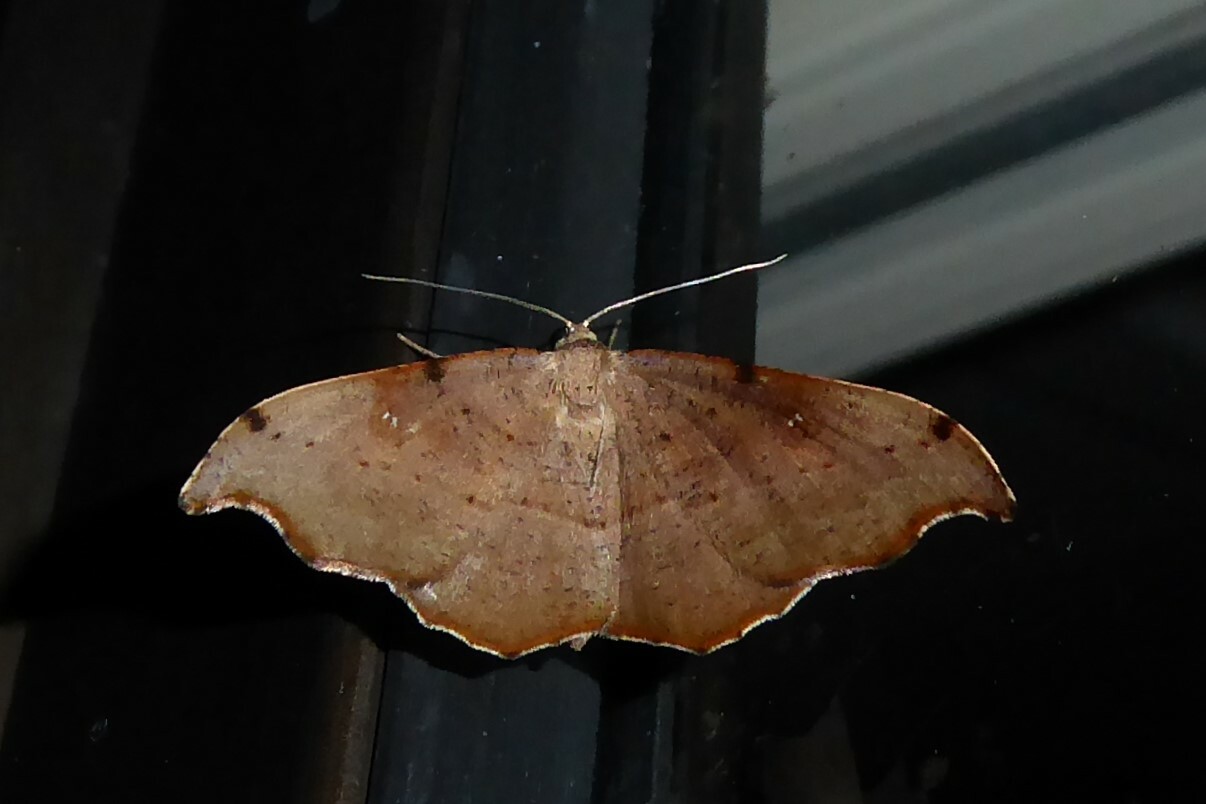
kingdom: Animalia
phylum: Arthropoda
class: Insecta
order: Lepidoptera
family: Geometridae
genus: Sarisa
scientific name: Sarisa muriferata
